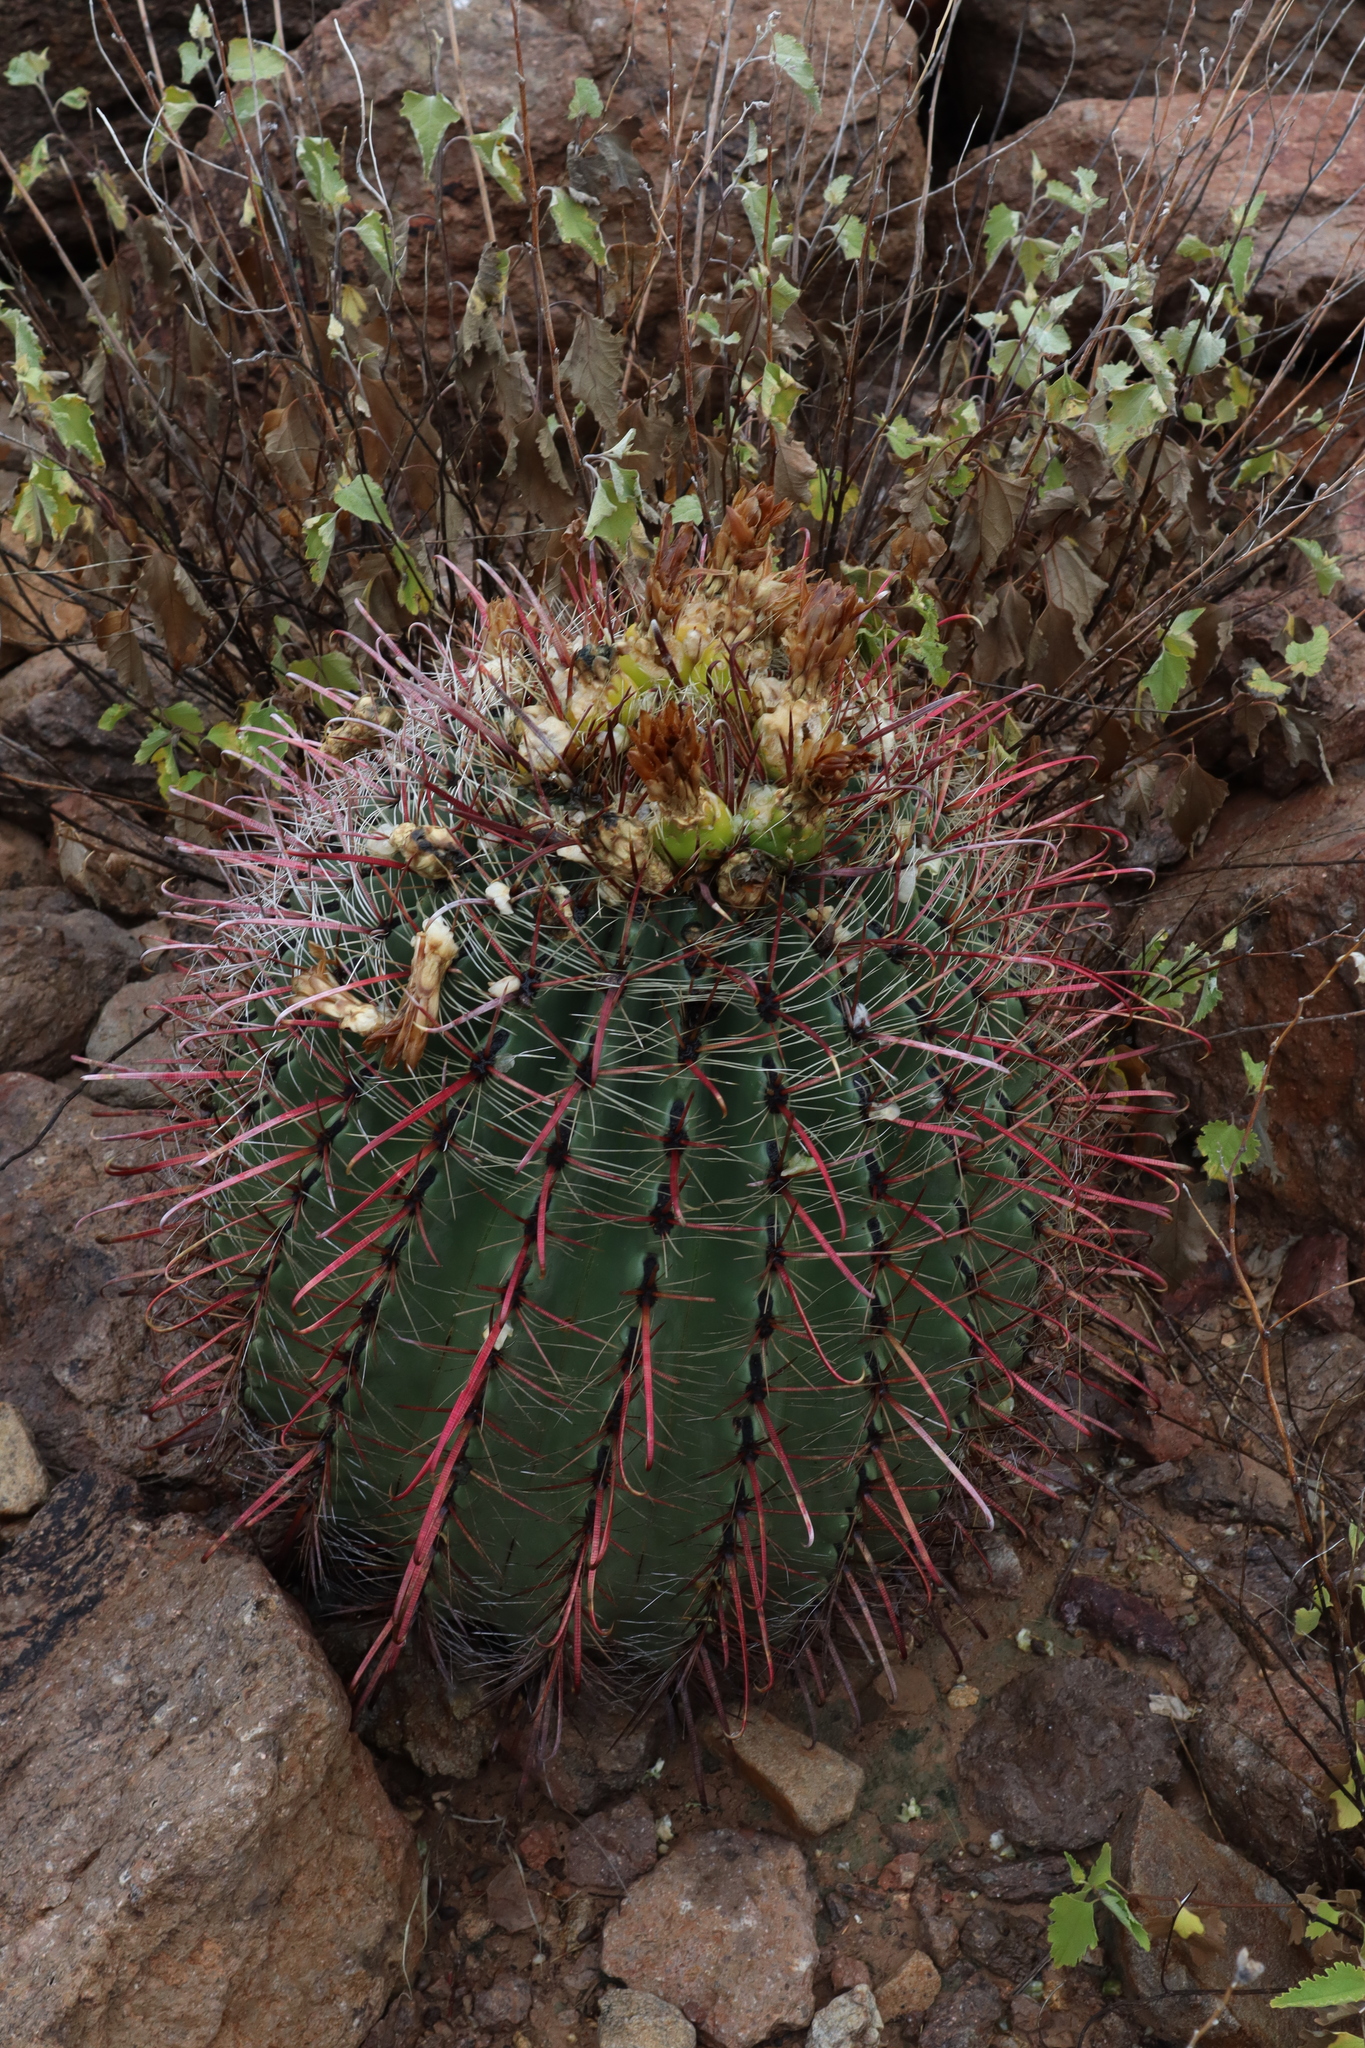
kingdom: Plantae
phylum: Tracheophyta
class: Magnoliopsida
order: Caryophyllales
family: Cactaceae
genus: Ferocactus
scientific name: Ferocactus wislizeni
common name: Candy barrel cactus
